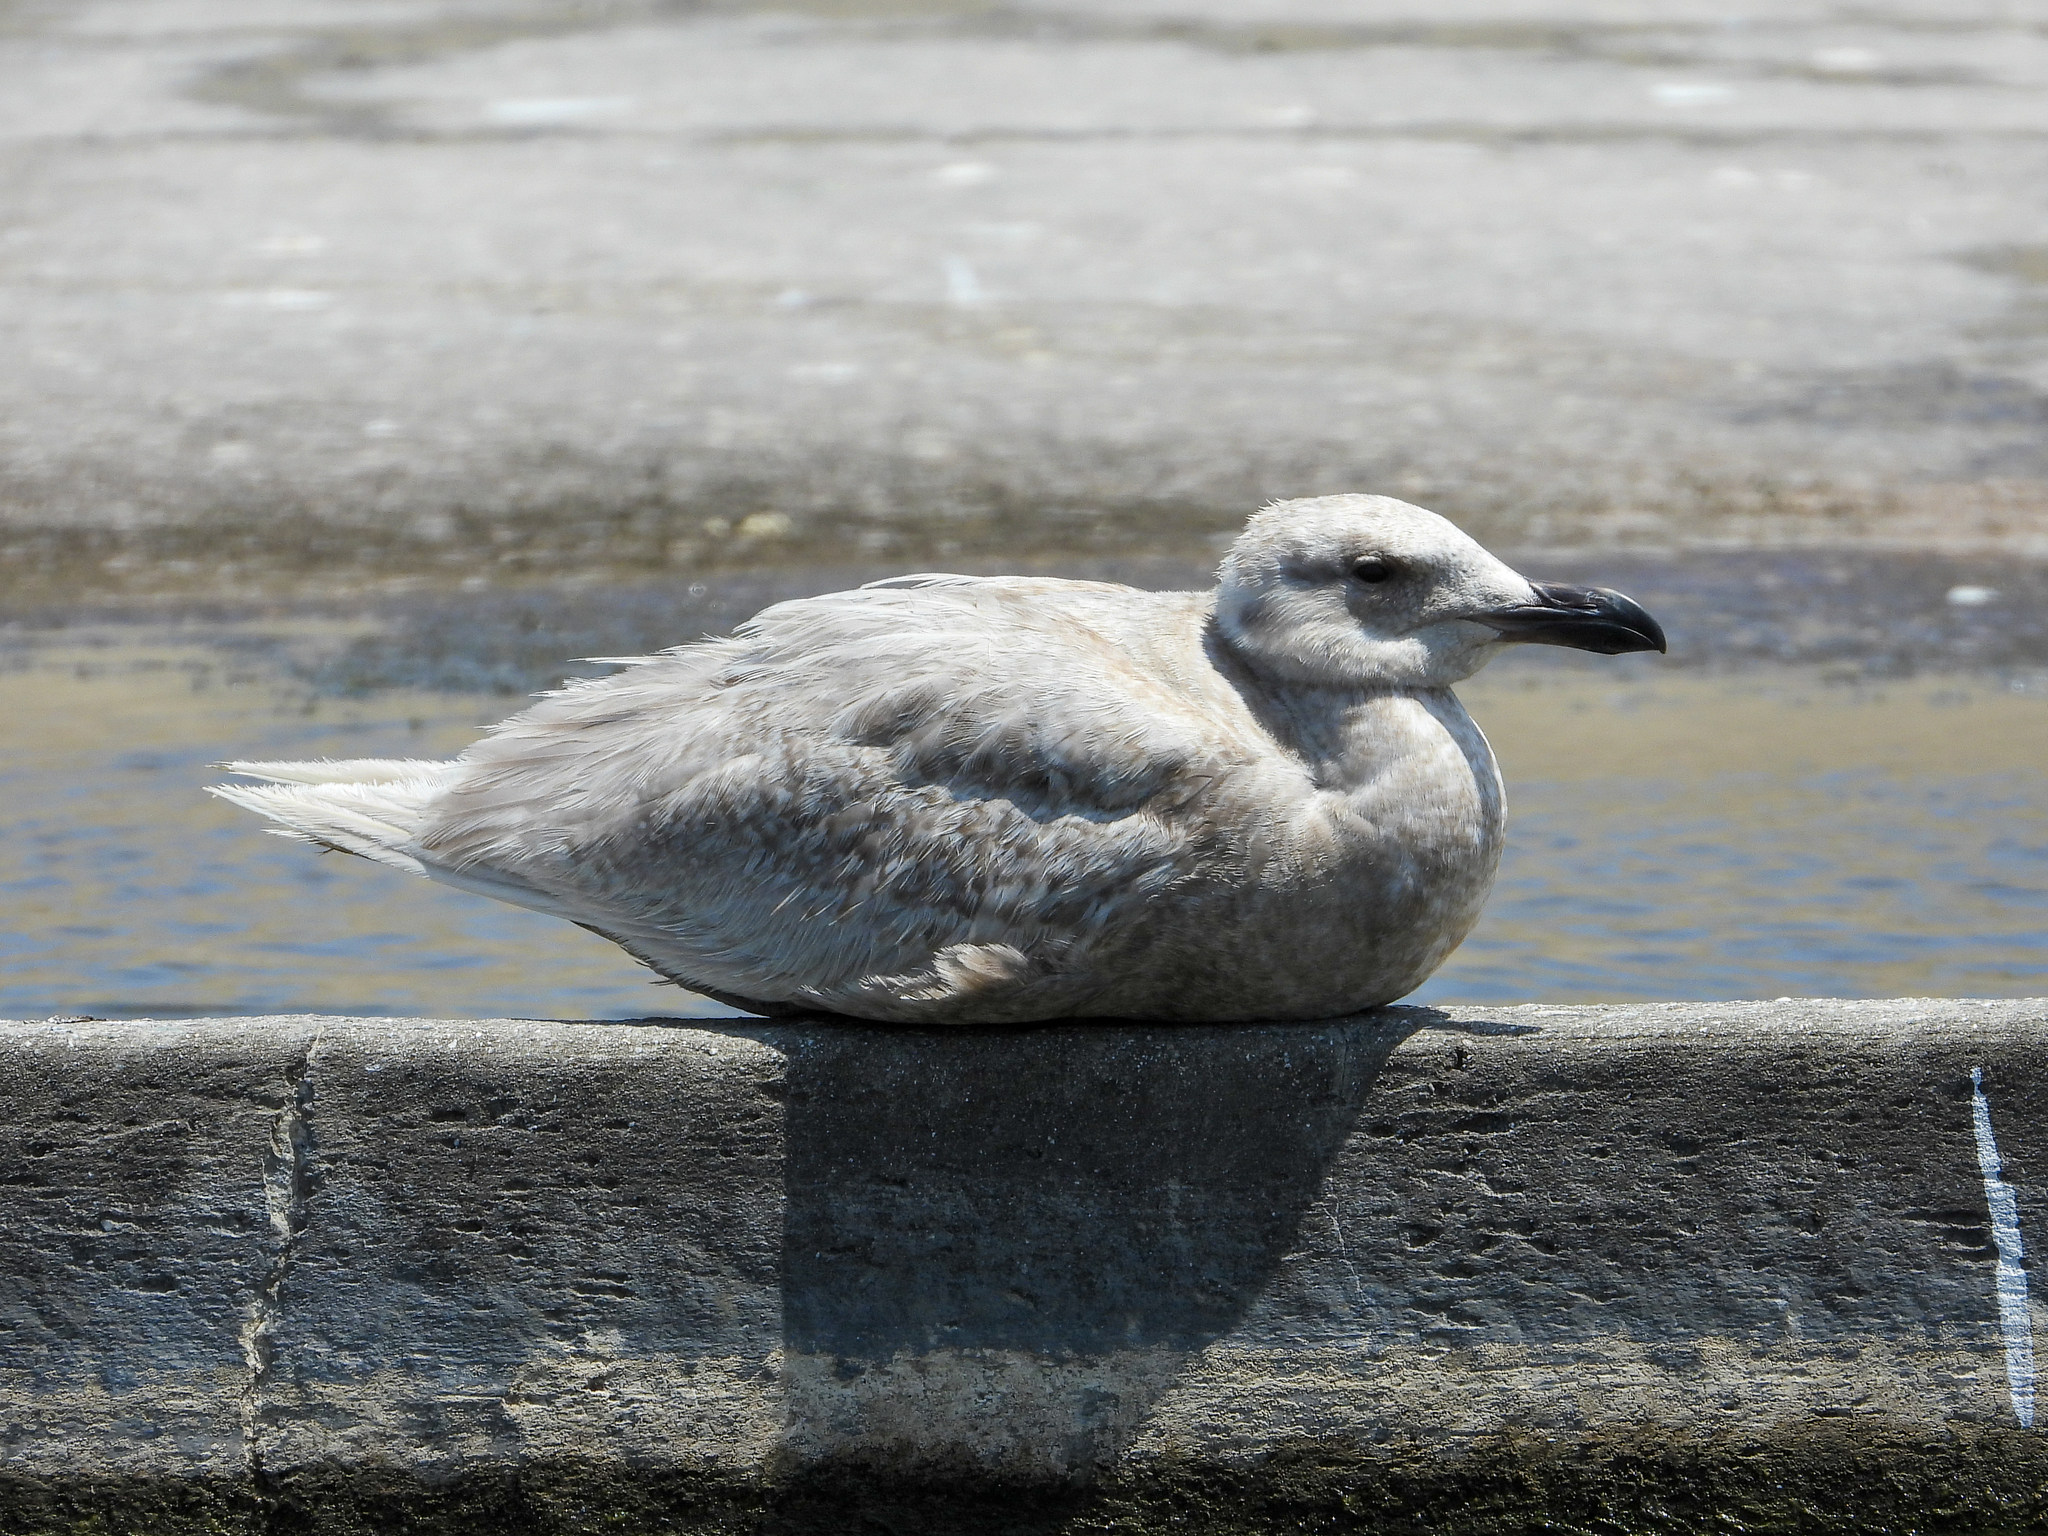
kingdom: Animalia
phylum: Chordata
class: Aves
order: Charadriiformes
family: Laridae
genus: Larus
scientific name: Larus glaucescens
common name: Glaucous-winged gull
